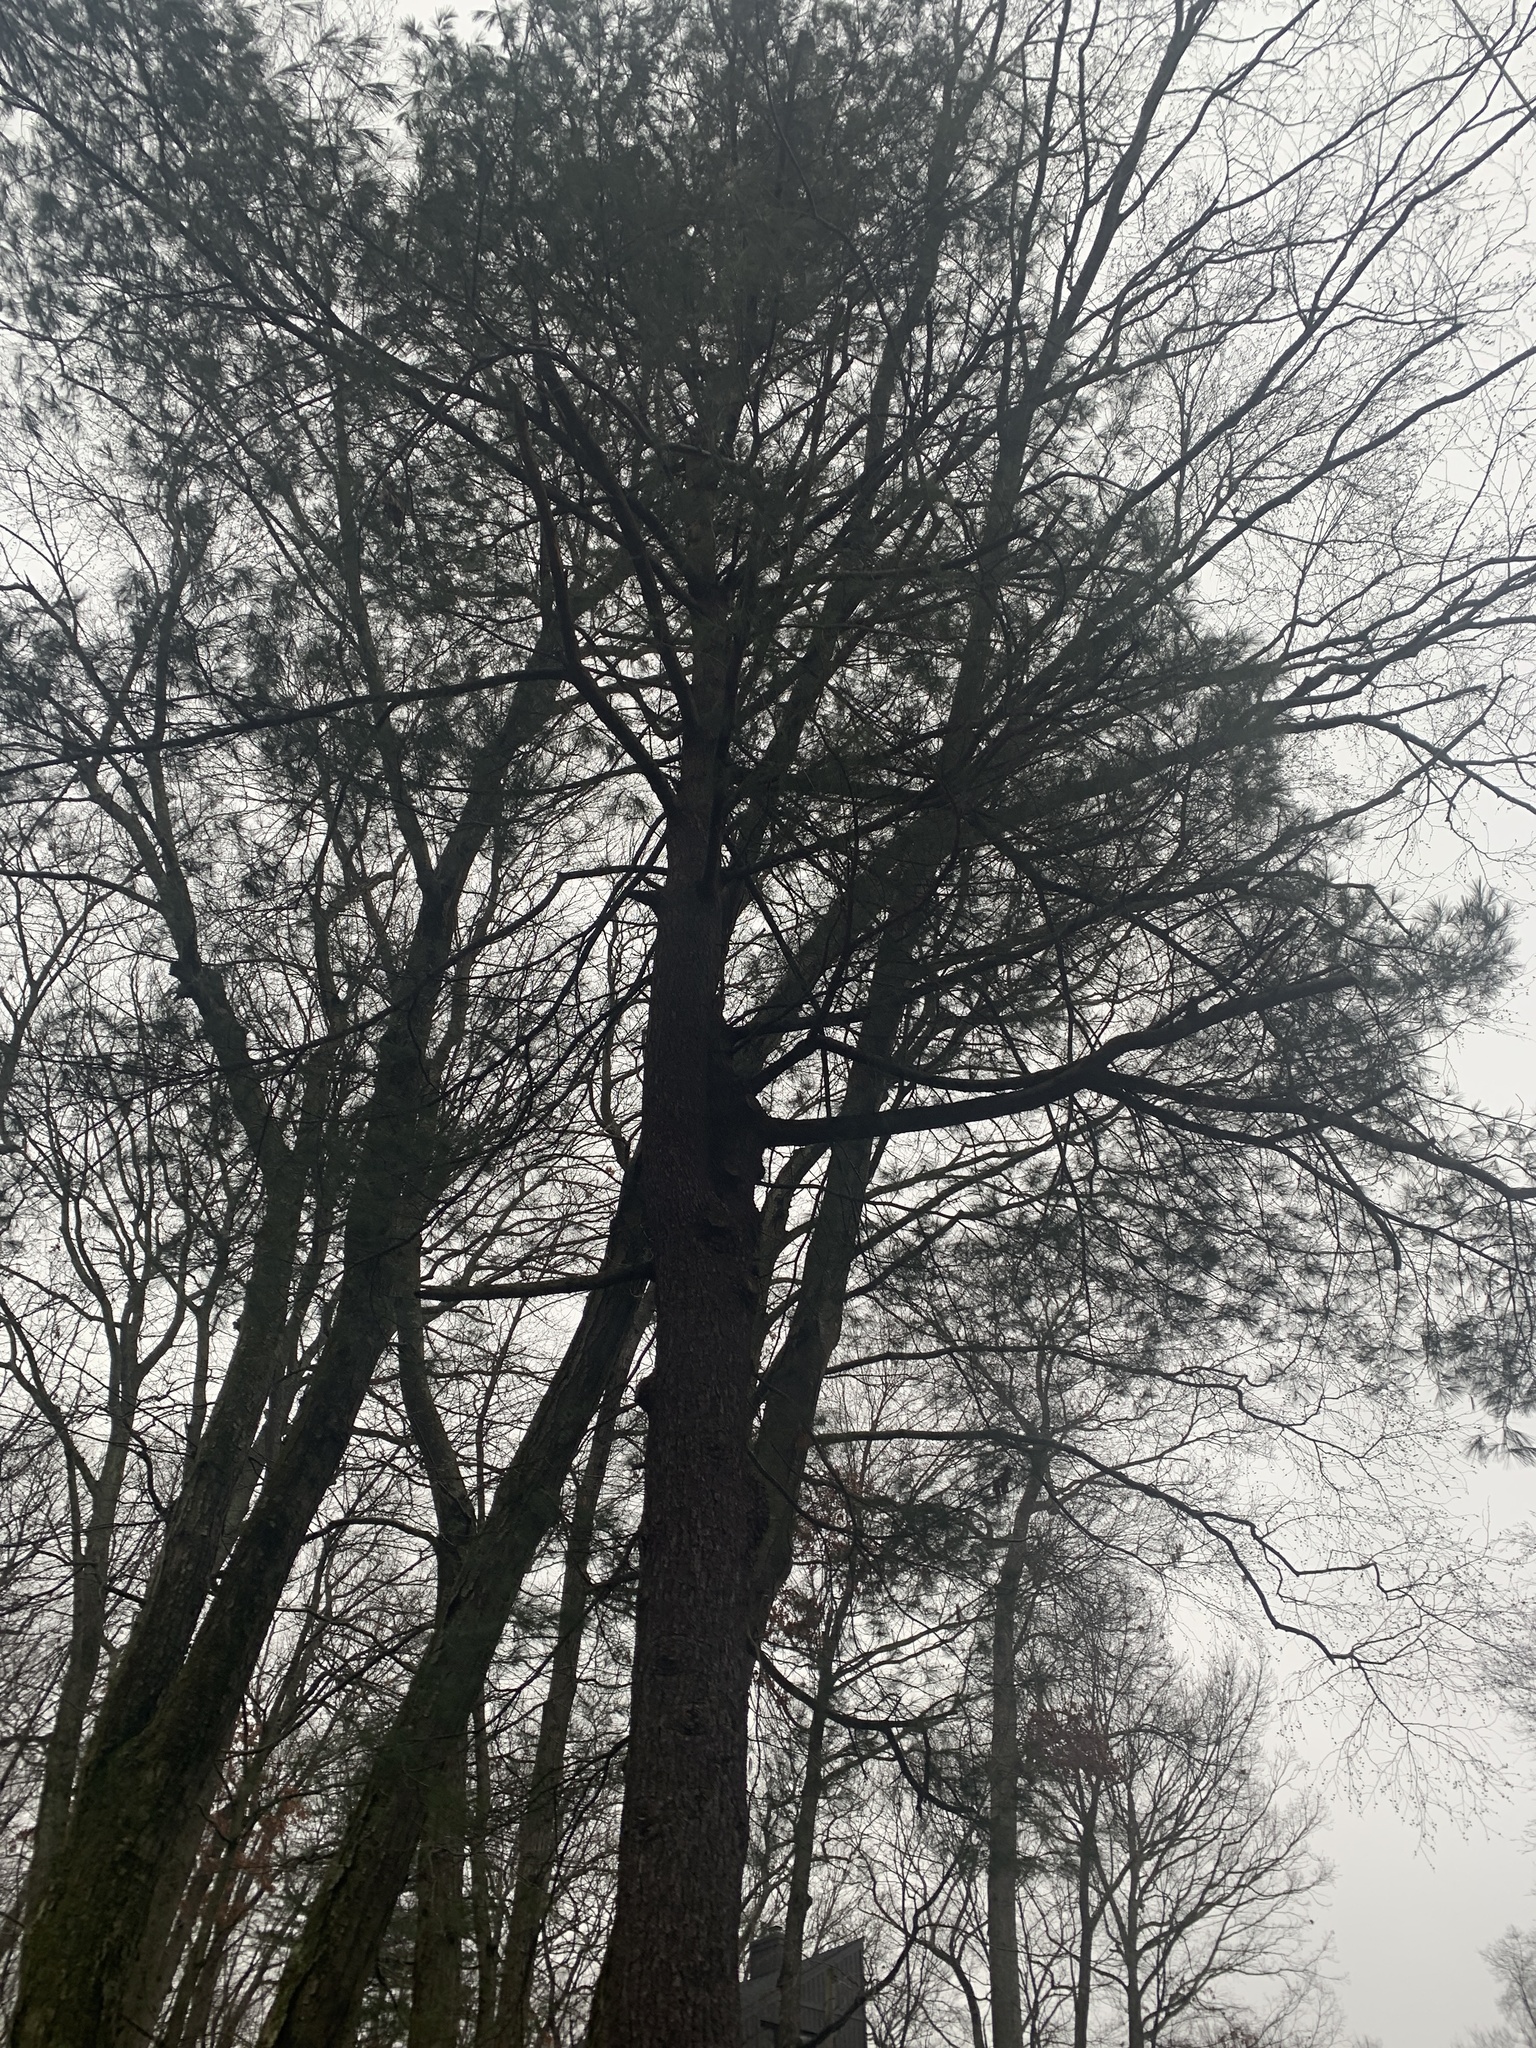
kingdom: Plantae
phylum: Tracheophyta
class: Pinopsida
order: Pinales
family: Pinaceae
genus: Pinus
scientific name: Pinus strobus
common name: Weymouth pine
